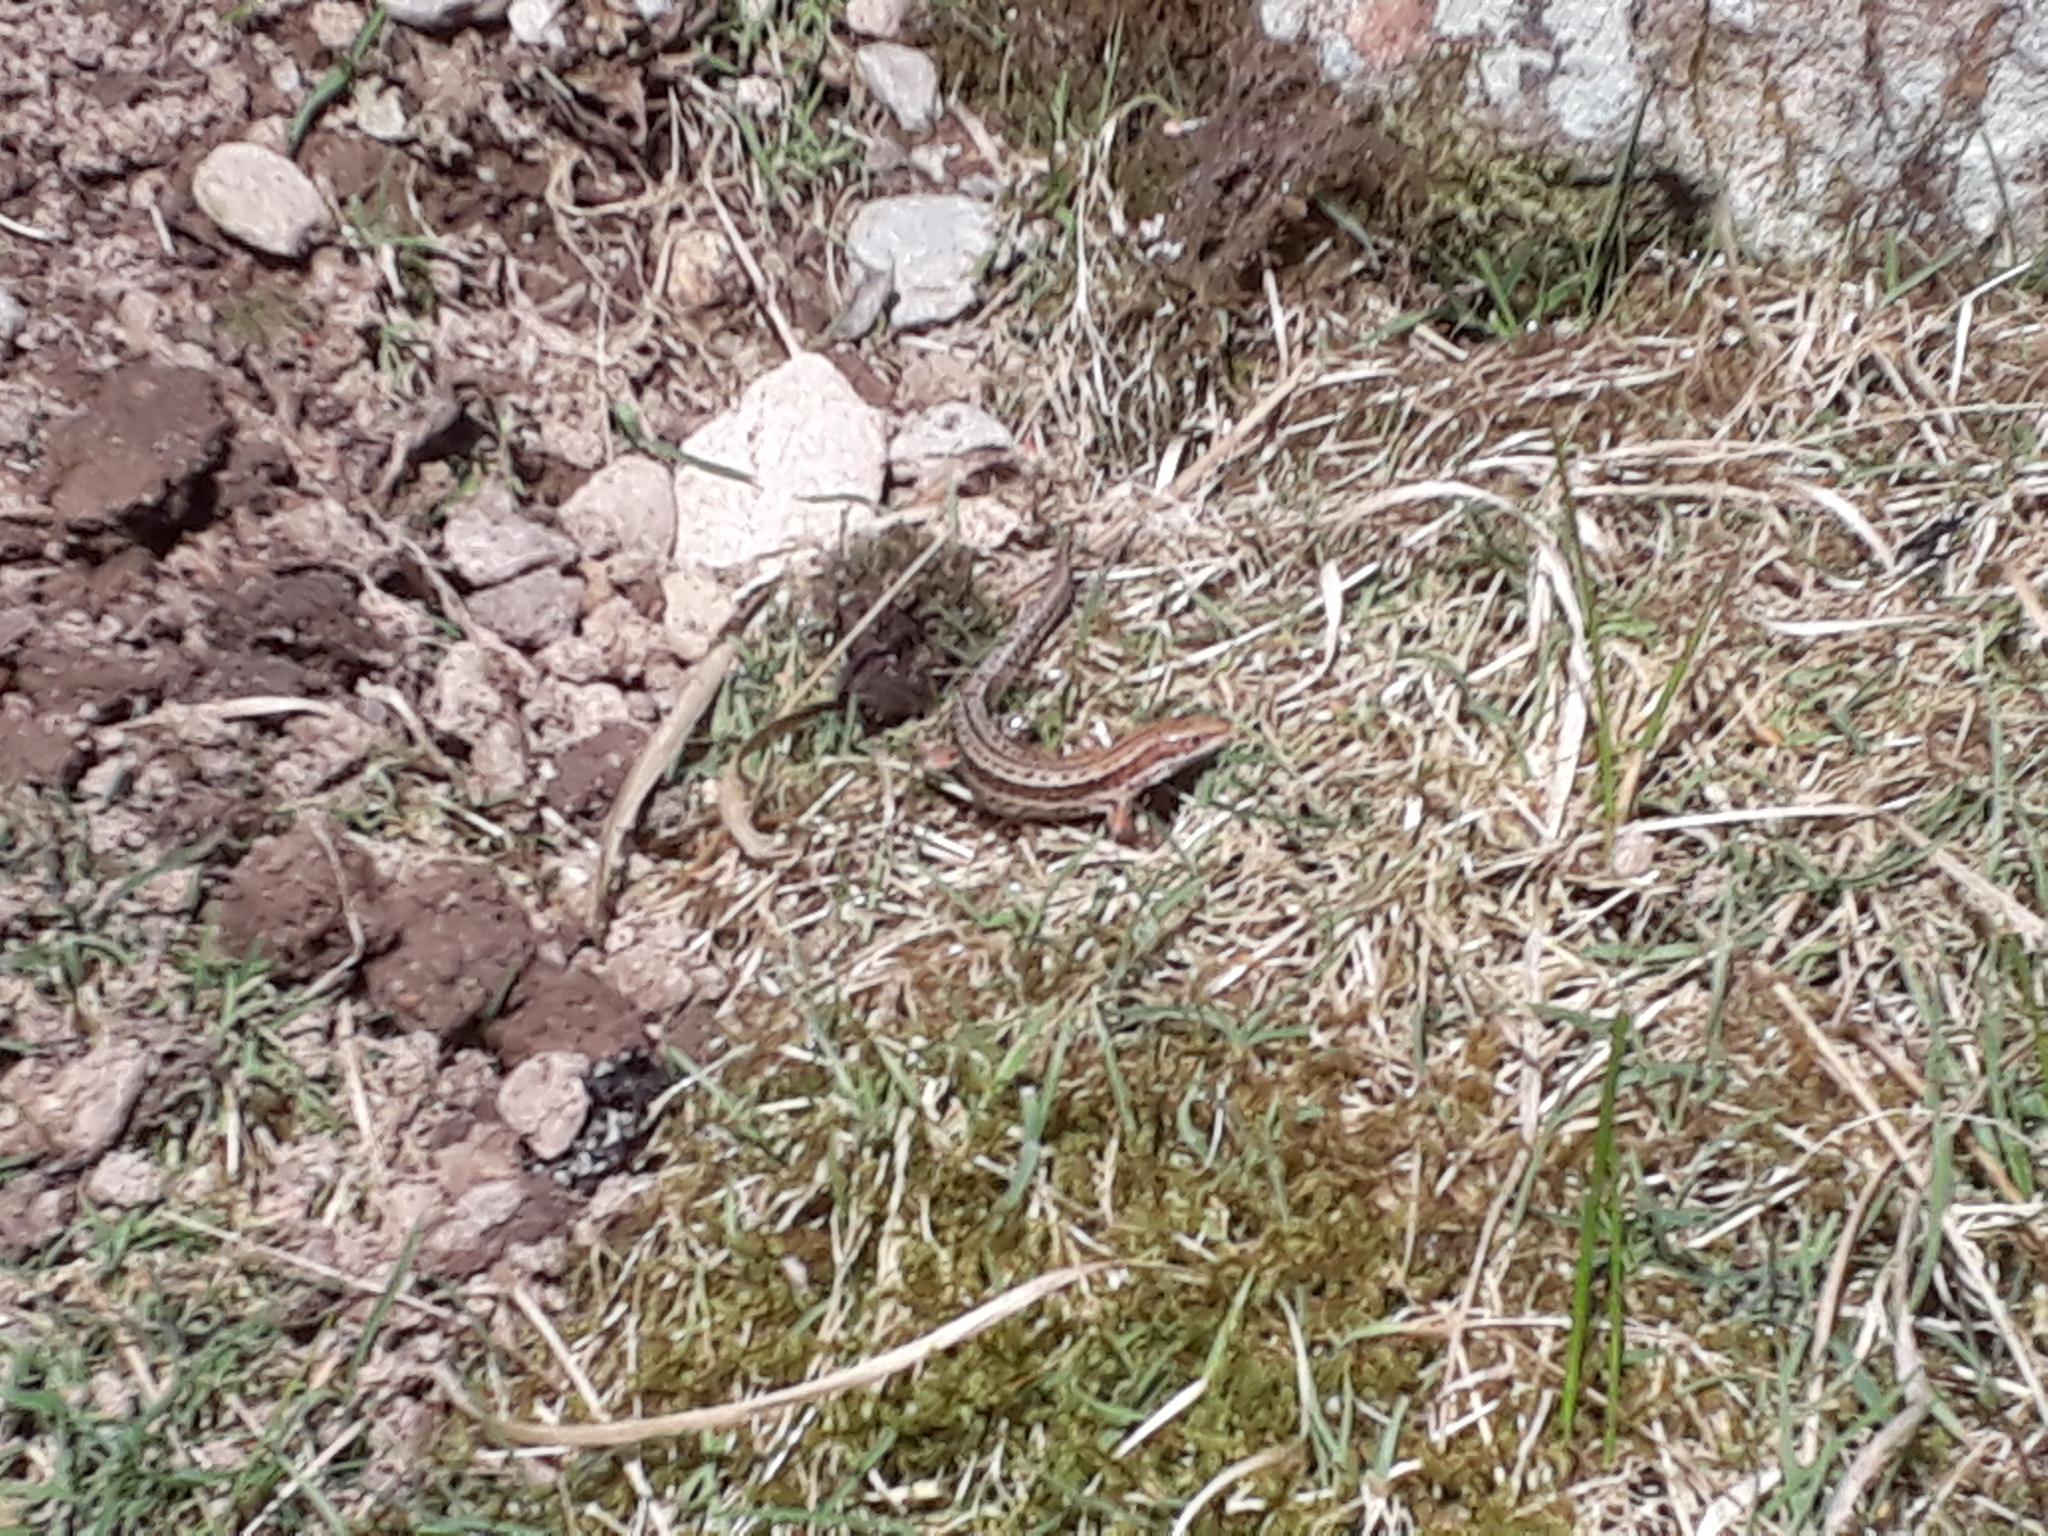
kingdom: Animalia
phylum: Chordata
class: Squamata
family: Lacertidae
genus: Zootoca
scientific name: Zootoca vivipara
